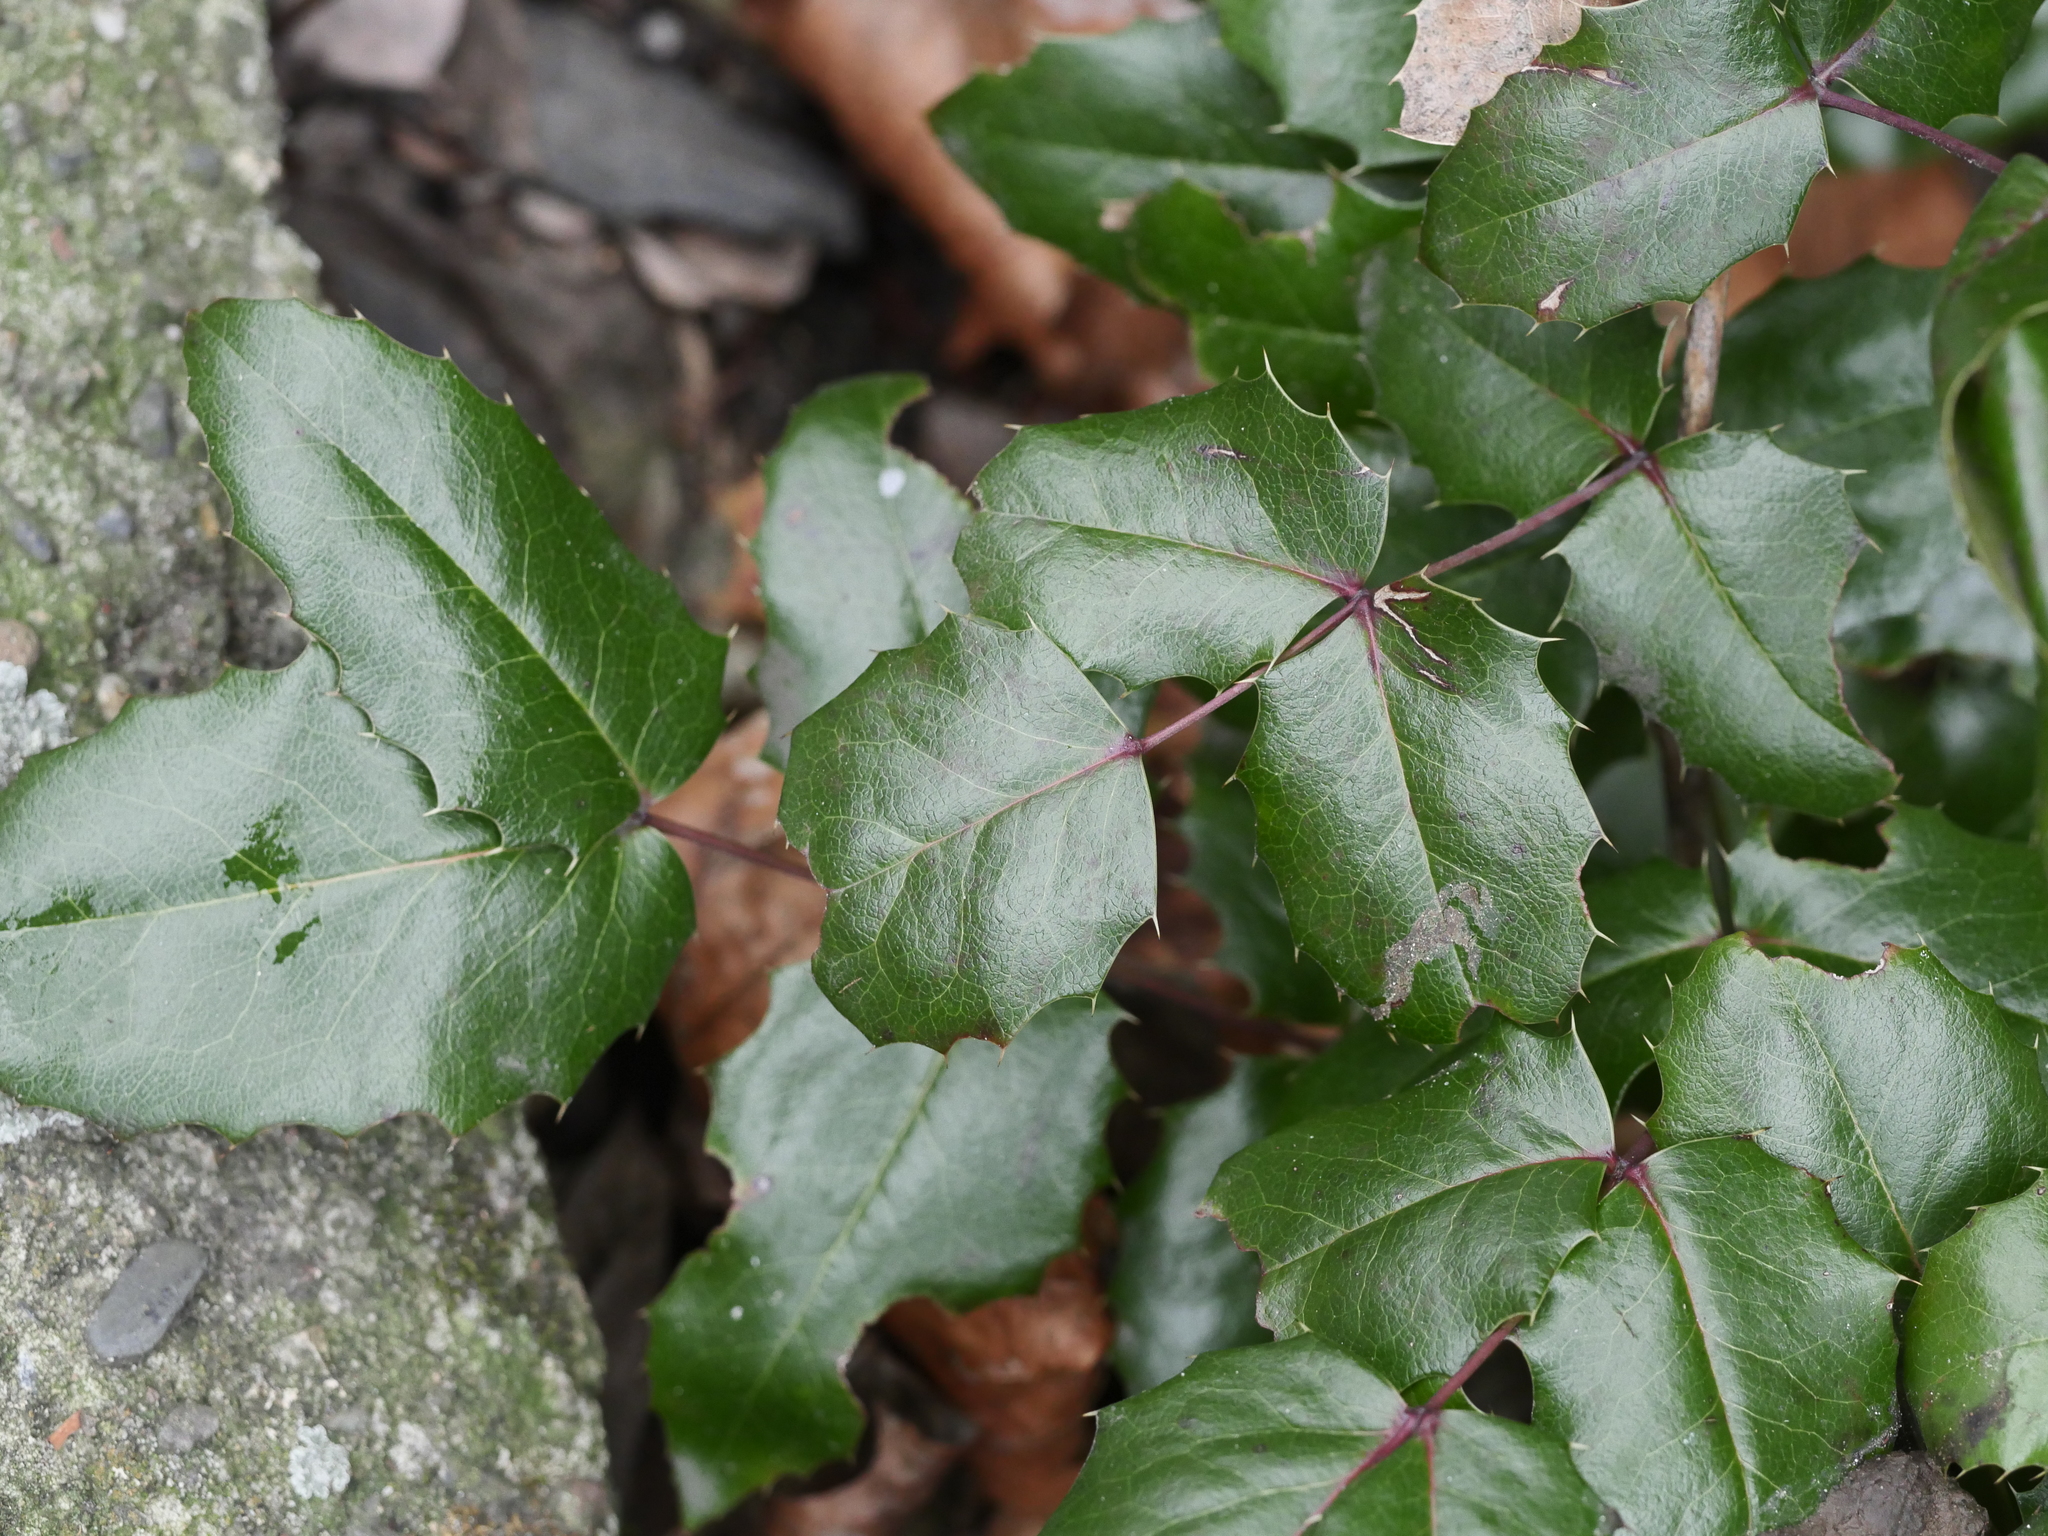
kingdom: Plantae
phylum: Tracheophyta
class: Magnoliopsida
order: Ranunculales
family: Berberidaceae
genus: Mahonia
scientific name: Mahonia aquifolium
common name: Oregon-grape
